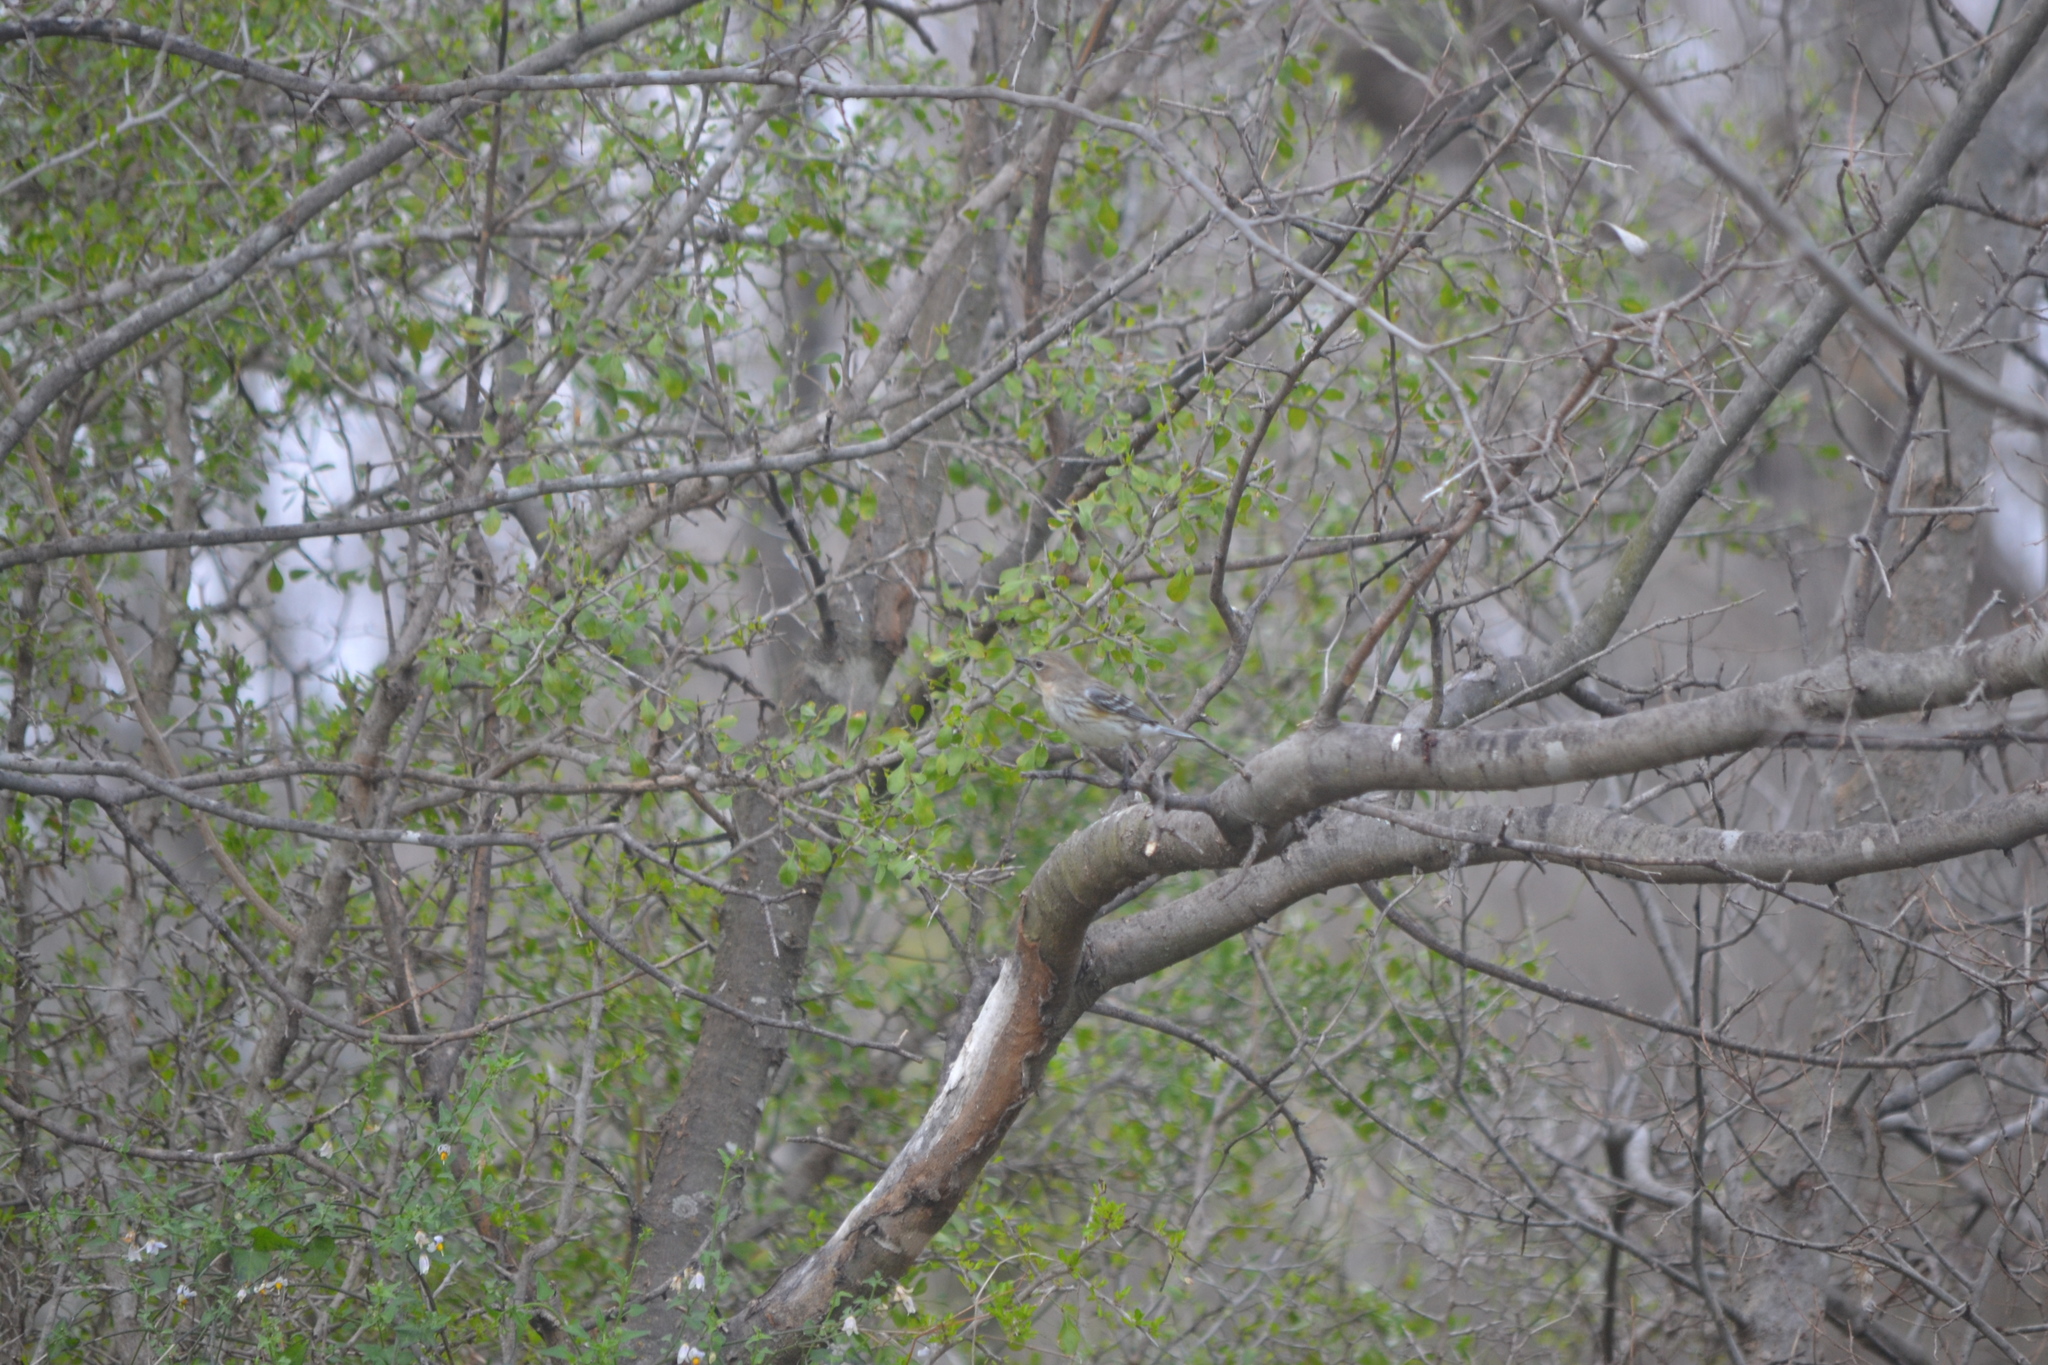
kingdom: Animalia
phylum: Chordata
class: Aves
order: Passeriformes
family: Parulidae
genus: Setophaga
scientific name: Setophaga coronata
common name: Myrtle warbler
